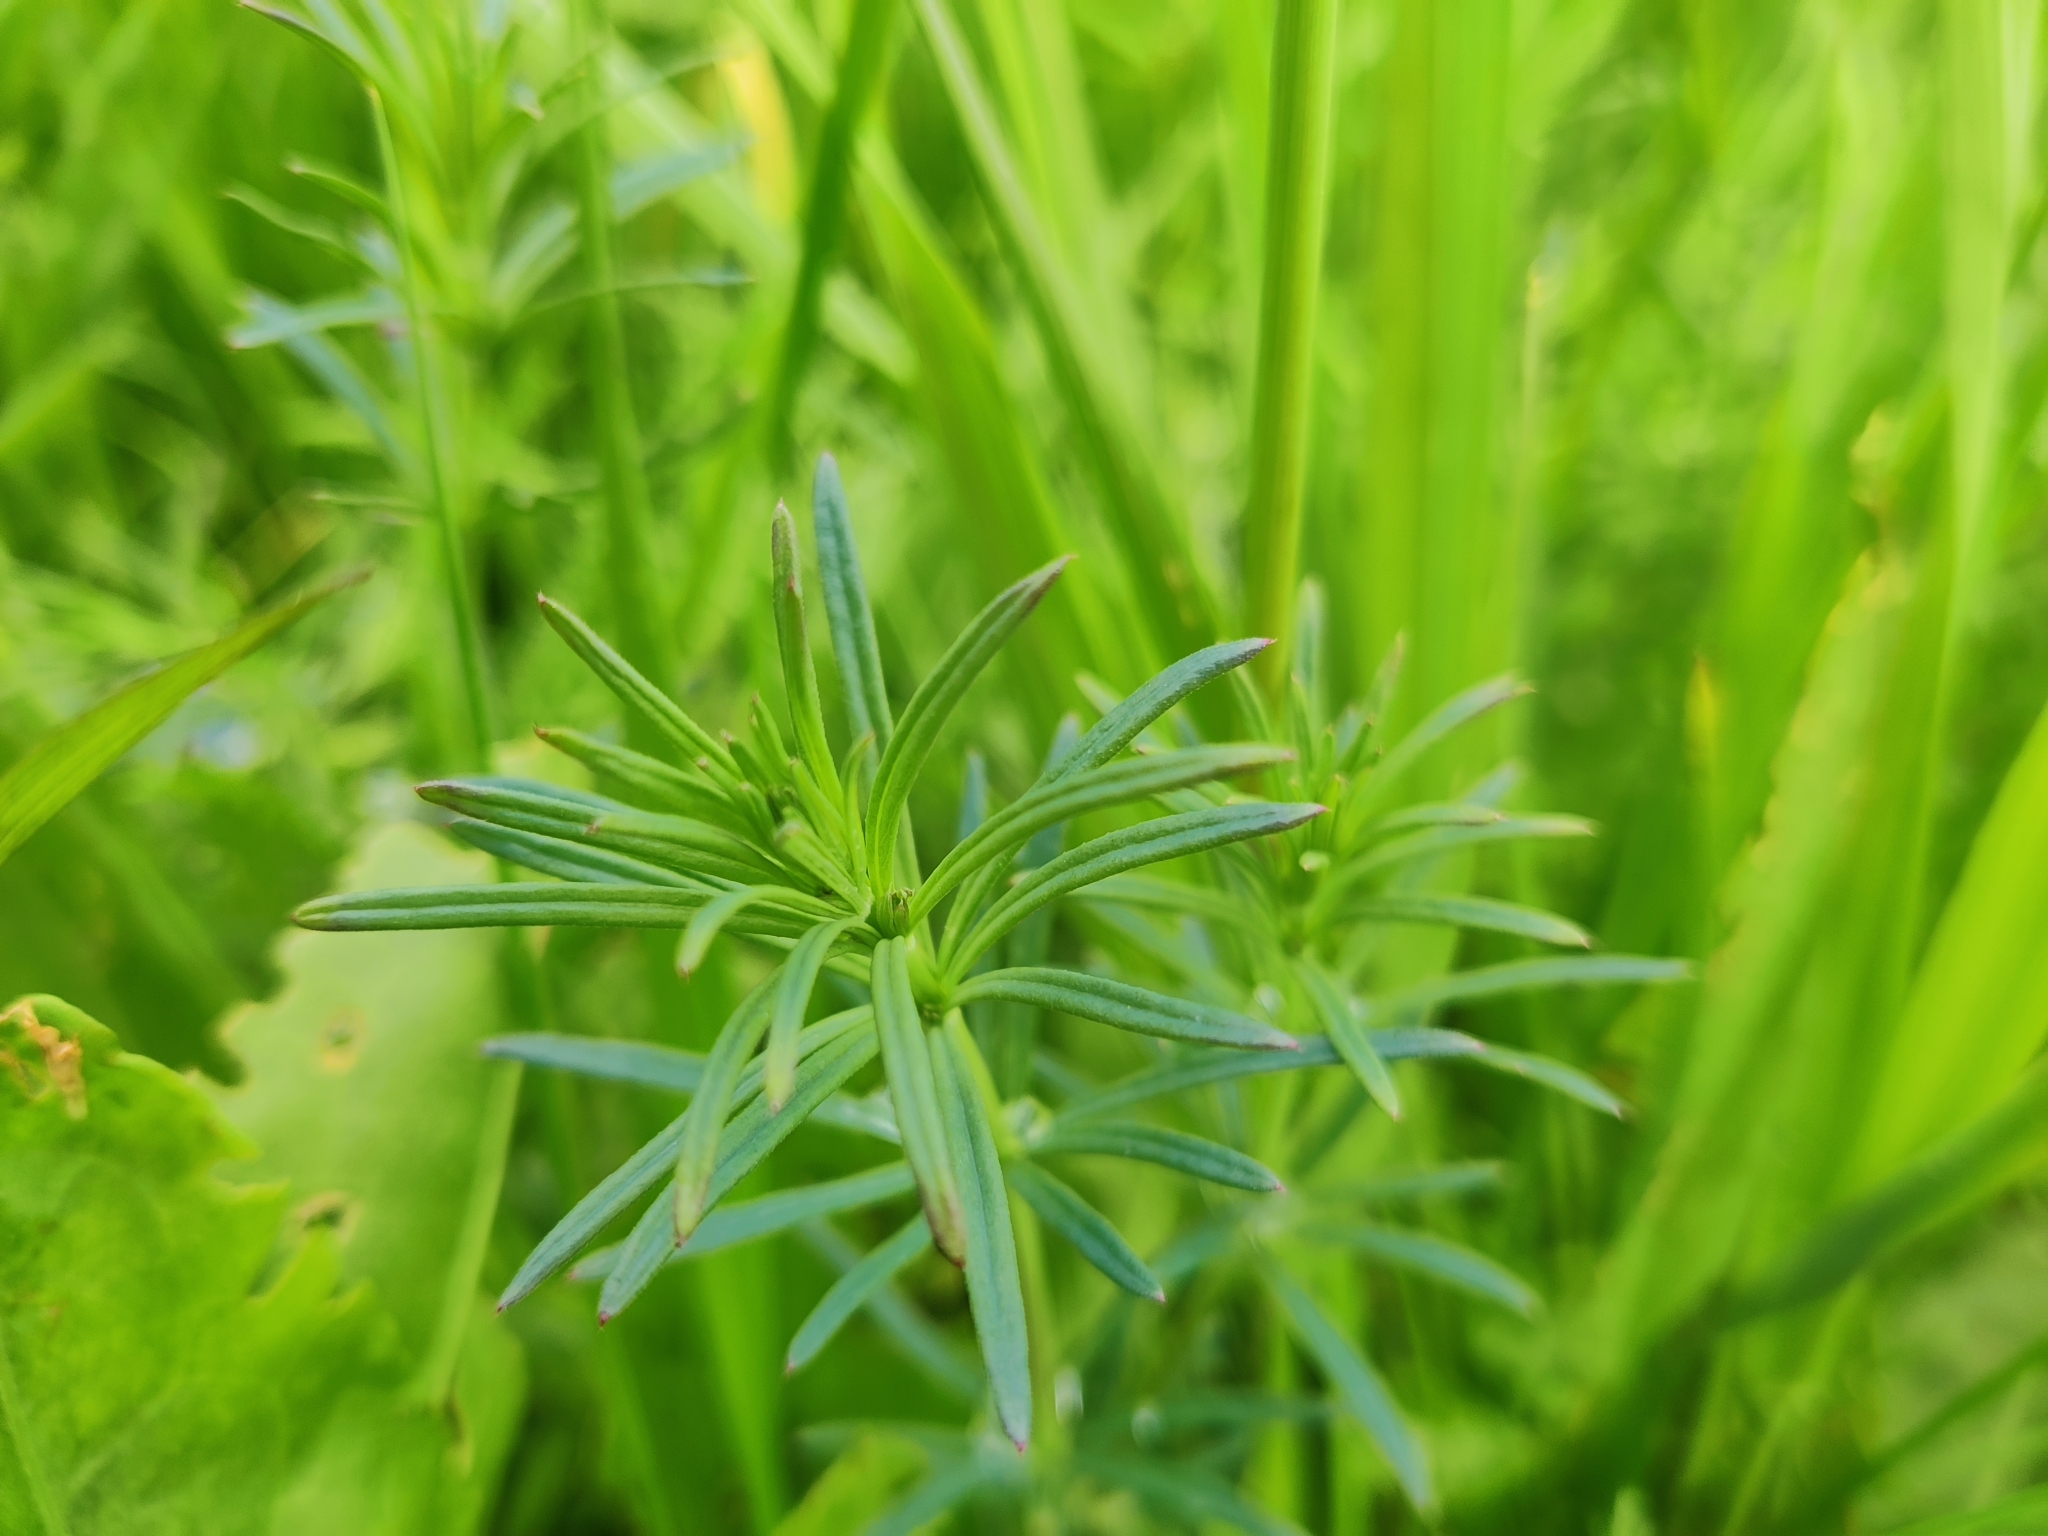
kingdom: Plantae
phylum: Tracheophyta
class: Magnoliopsida
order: Gentianales
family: Rubiaceae
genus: Galium
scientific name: Galium verum
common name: Lady's bedstraw
